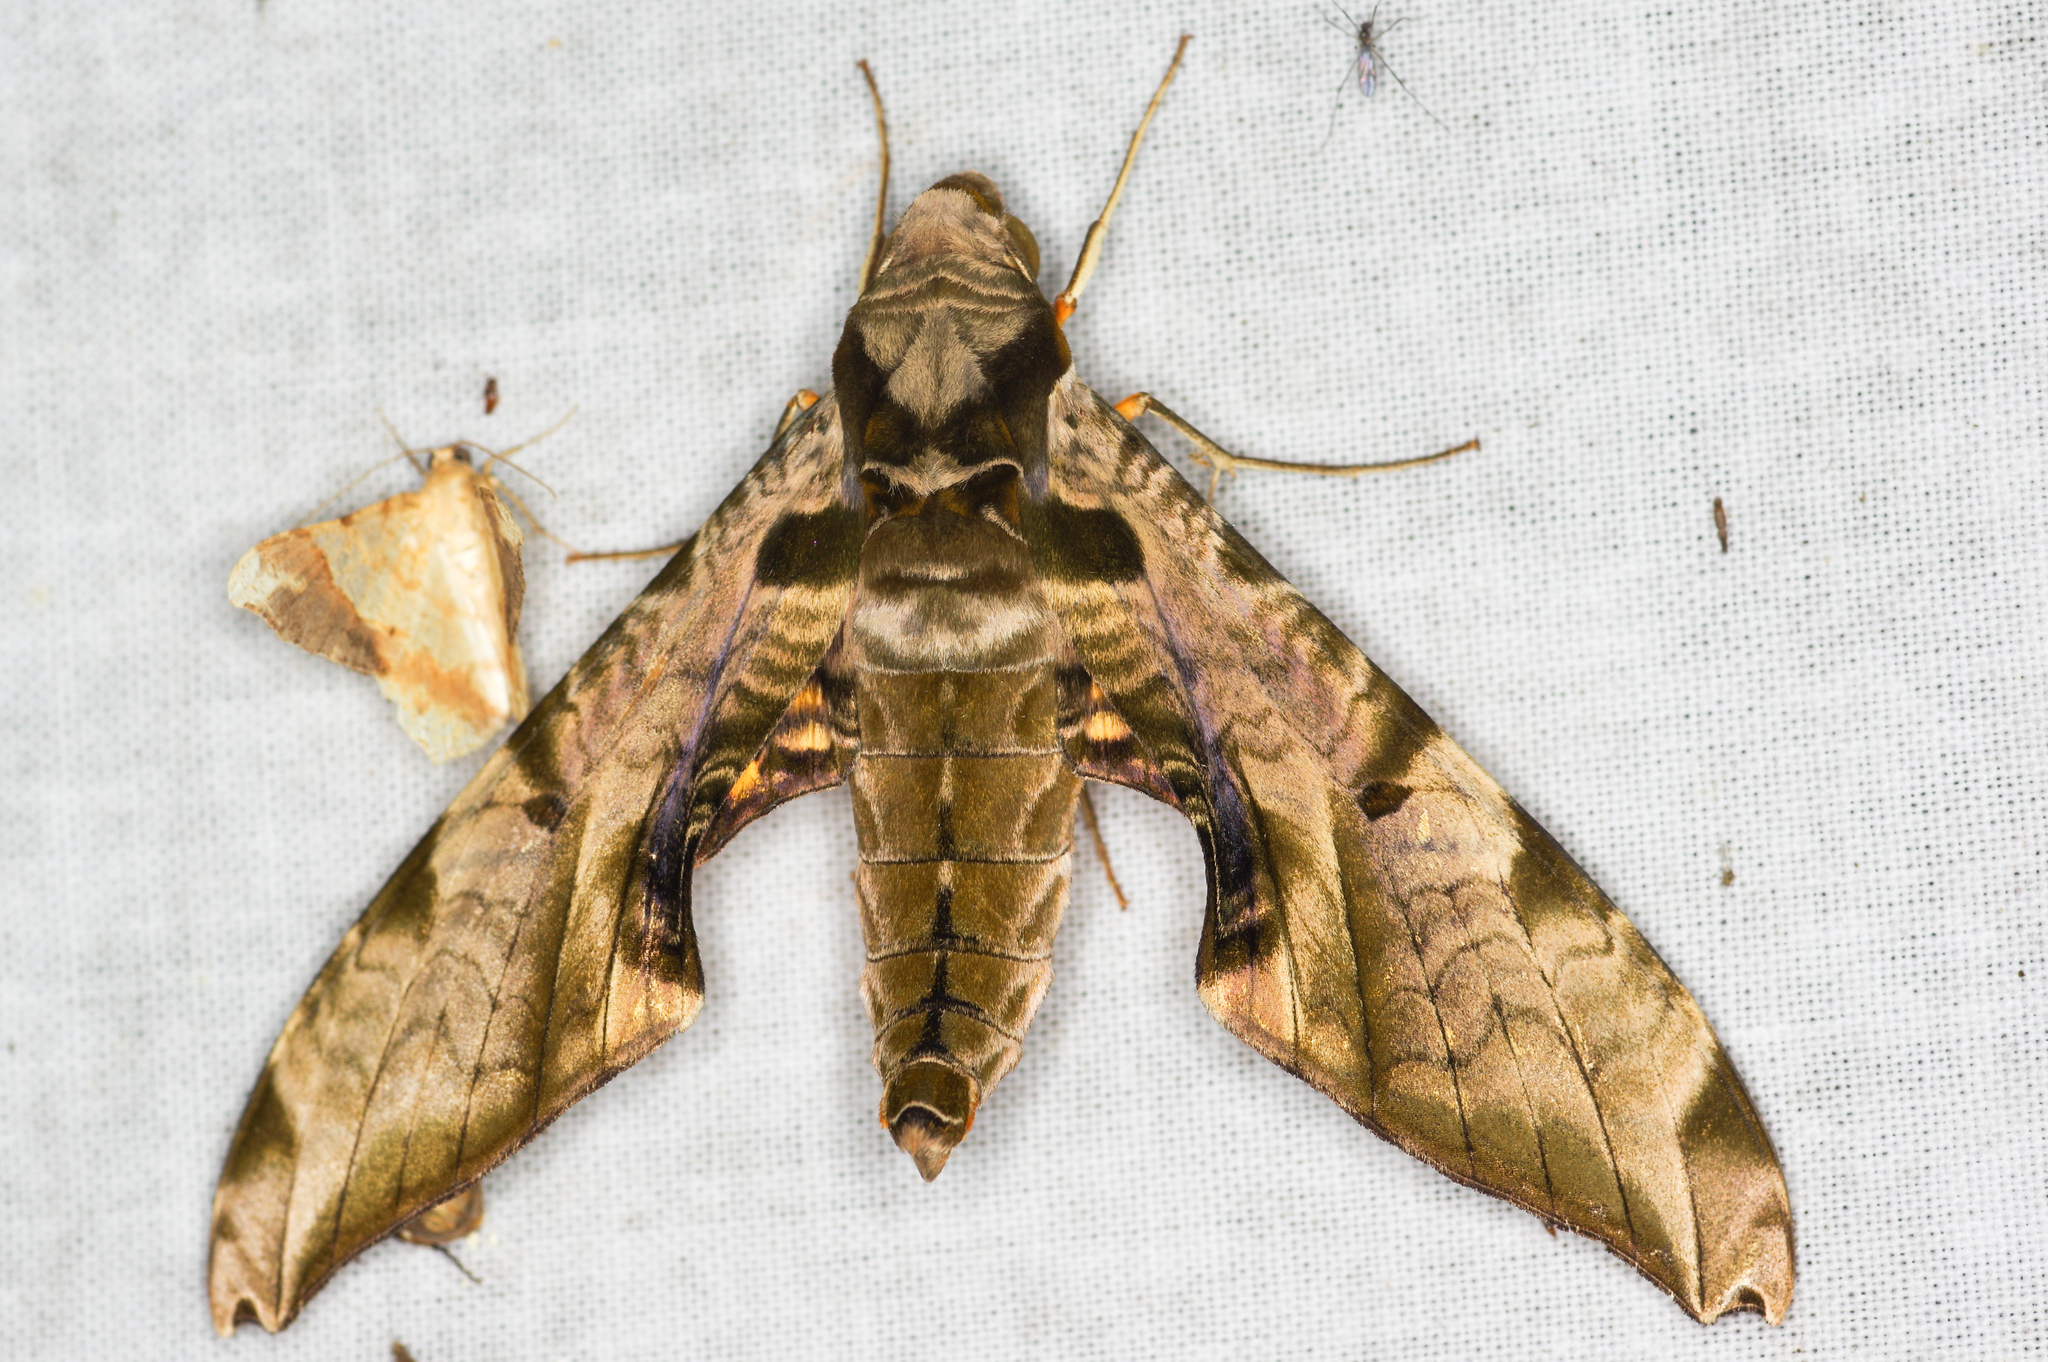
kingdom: Animalia
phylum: Arthropoda
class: Insecta
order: Lepidoptera
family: Sphingidae
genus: Protambulyx
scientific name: Protambulyx eurycles
